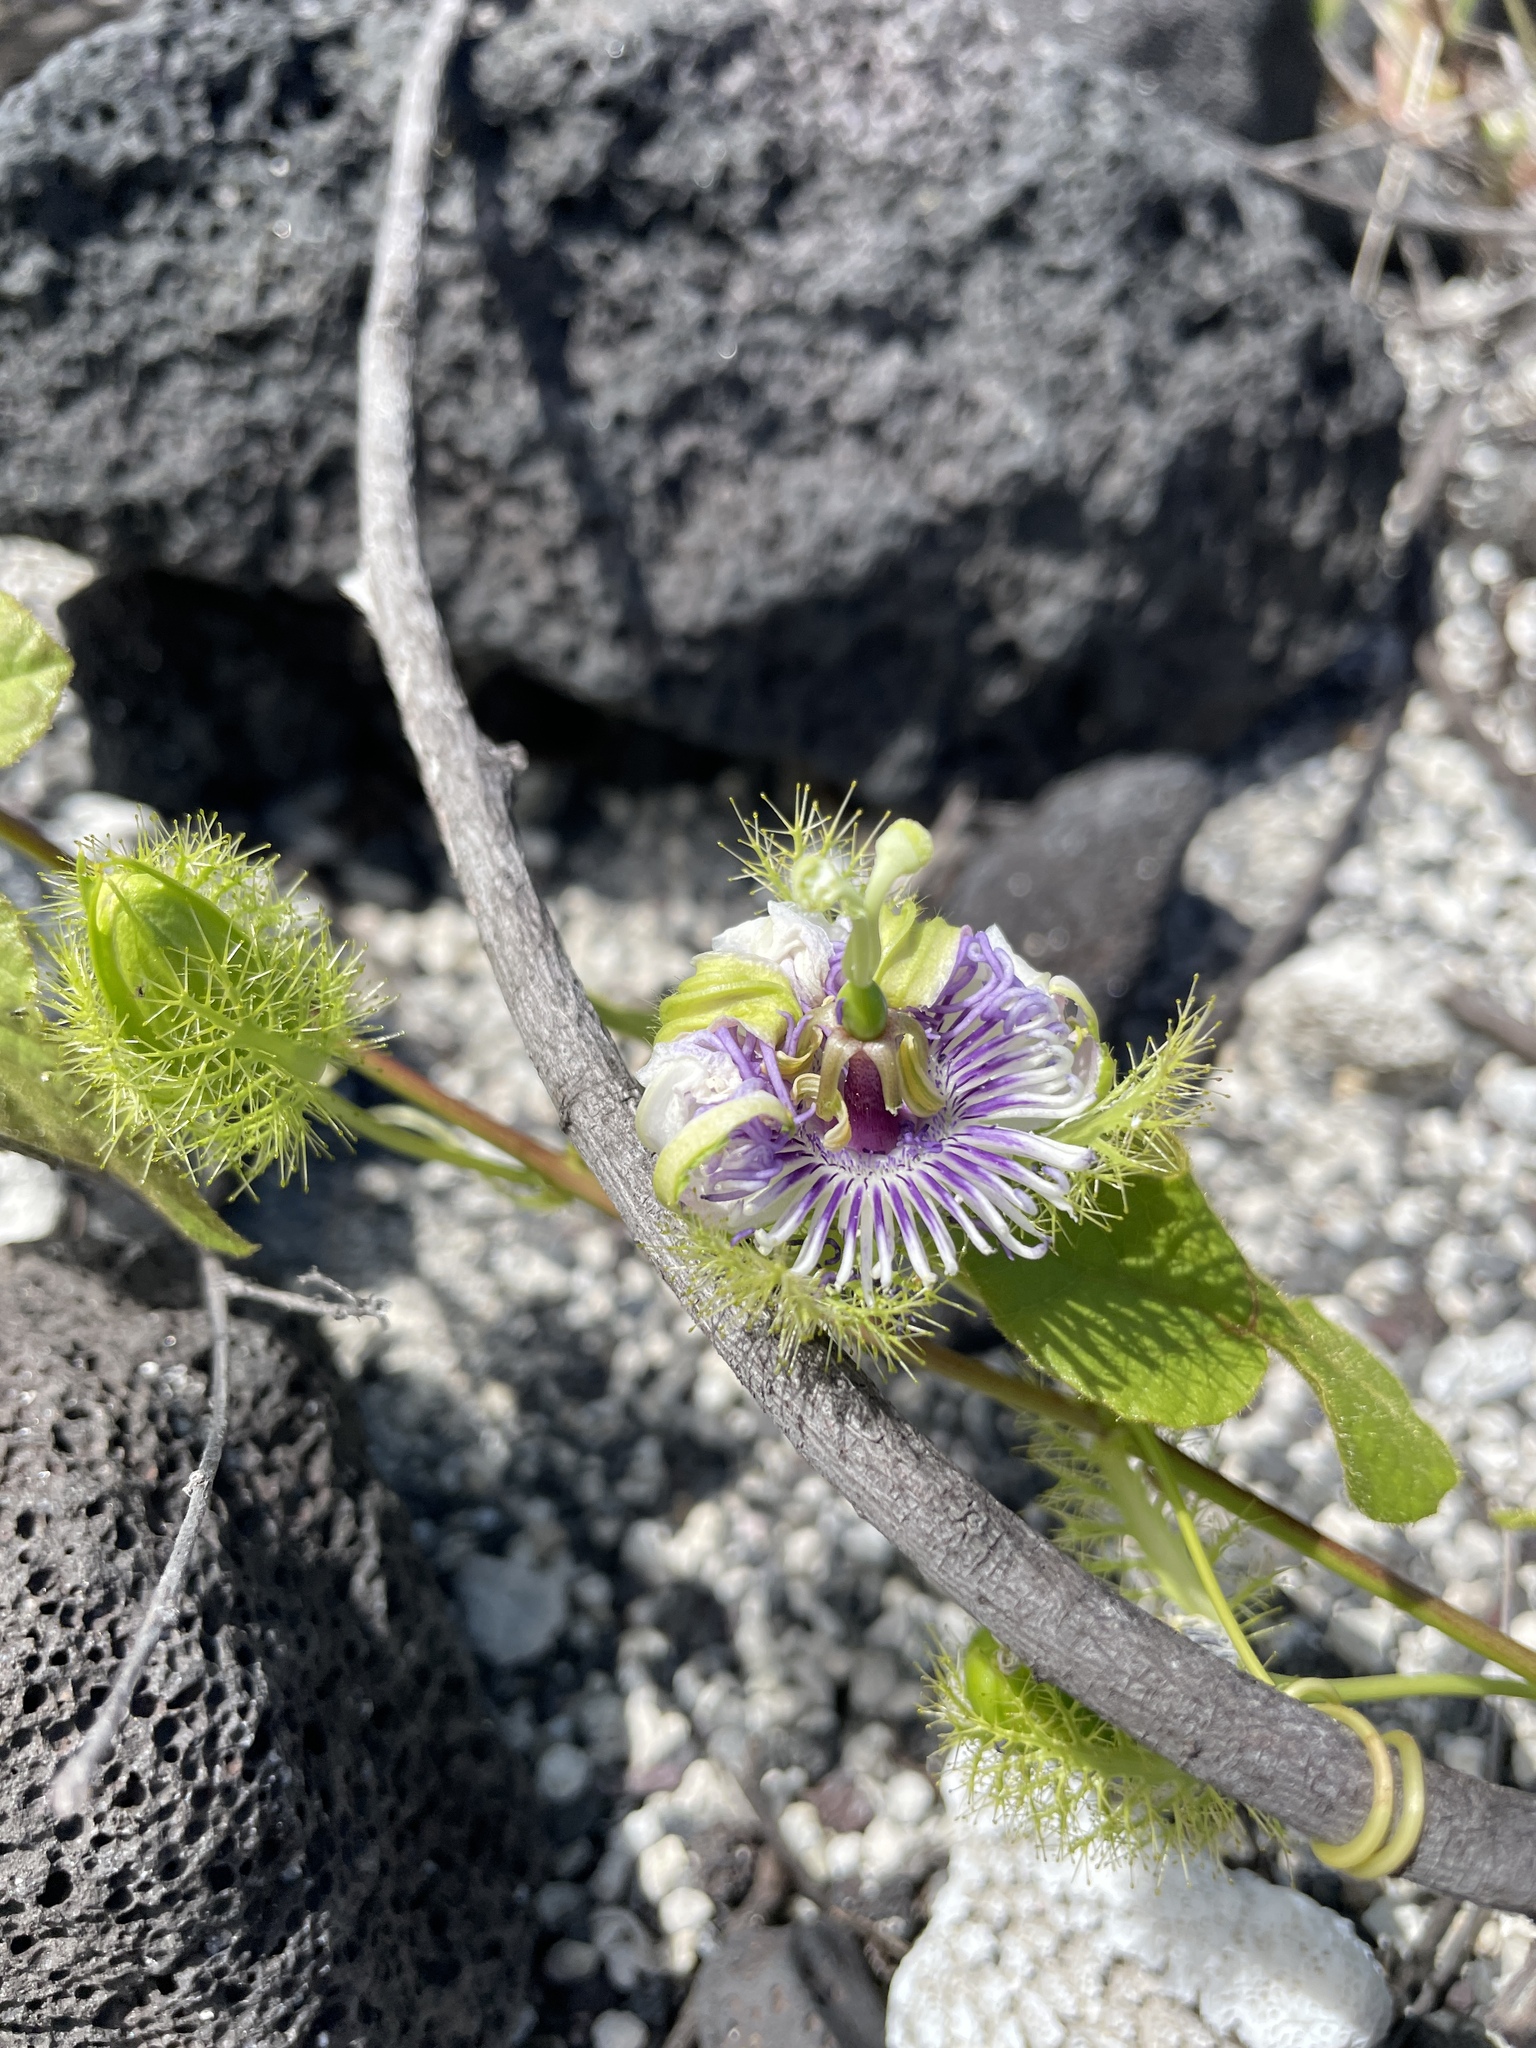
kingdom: Plantae
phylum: Tracheophyta
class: Magnoliopsida
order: Gentianales
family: Rubiaceae
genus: Saprosma
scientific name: Saprosma
